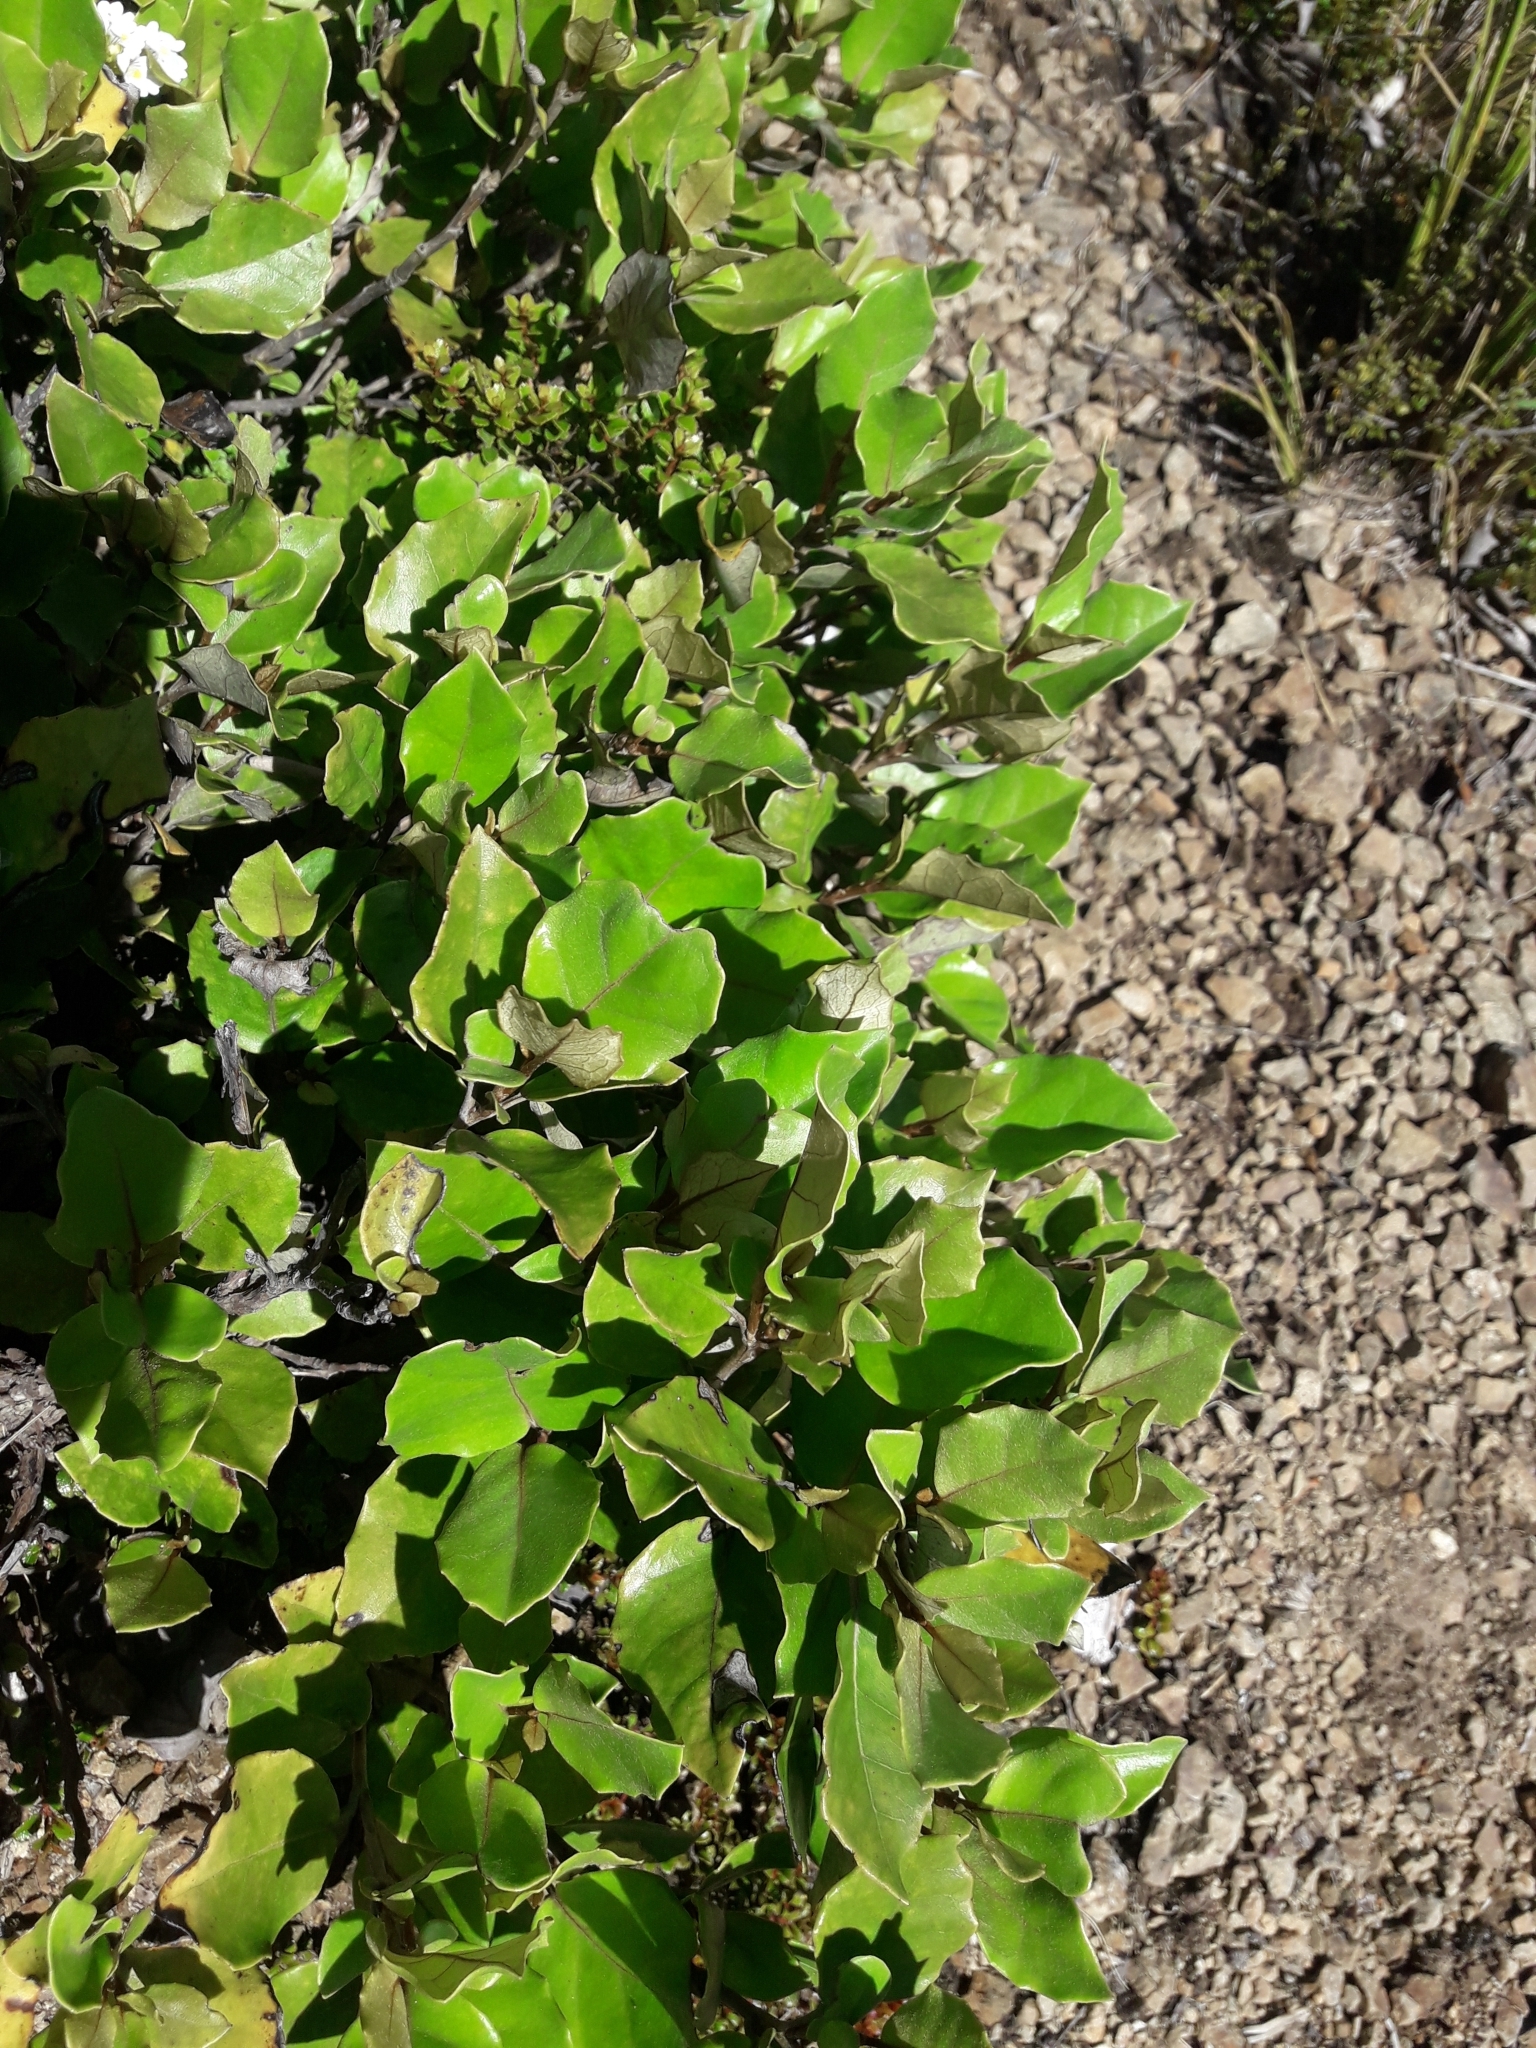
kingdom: Plantae
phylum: Tracheophyta
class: Magnoliopsida
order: Asterales
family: Asteraceae
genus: Olearia
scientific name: Olearia arborescens
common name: Glossy tree daisy
